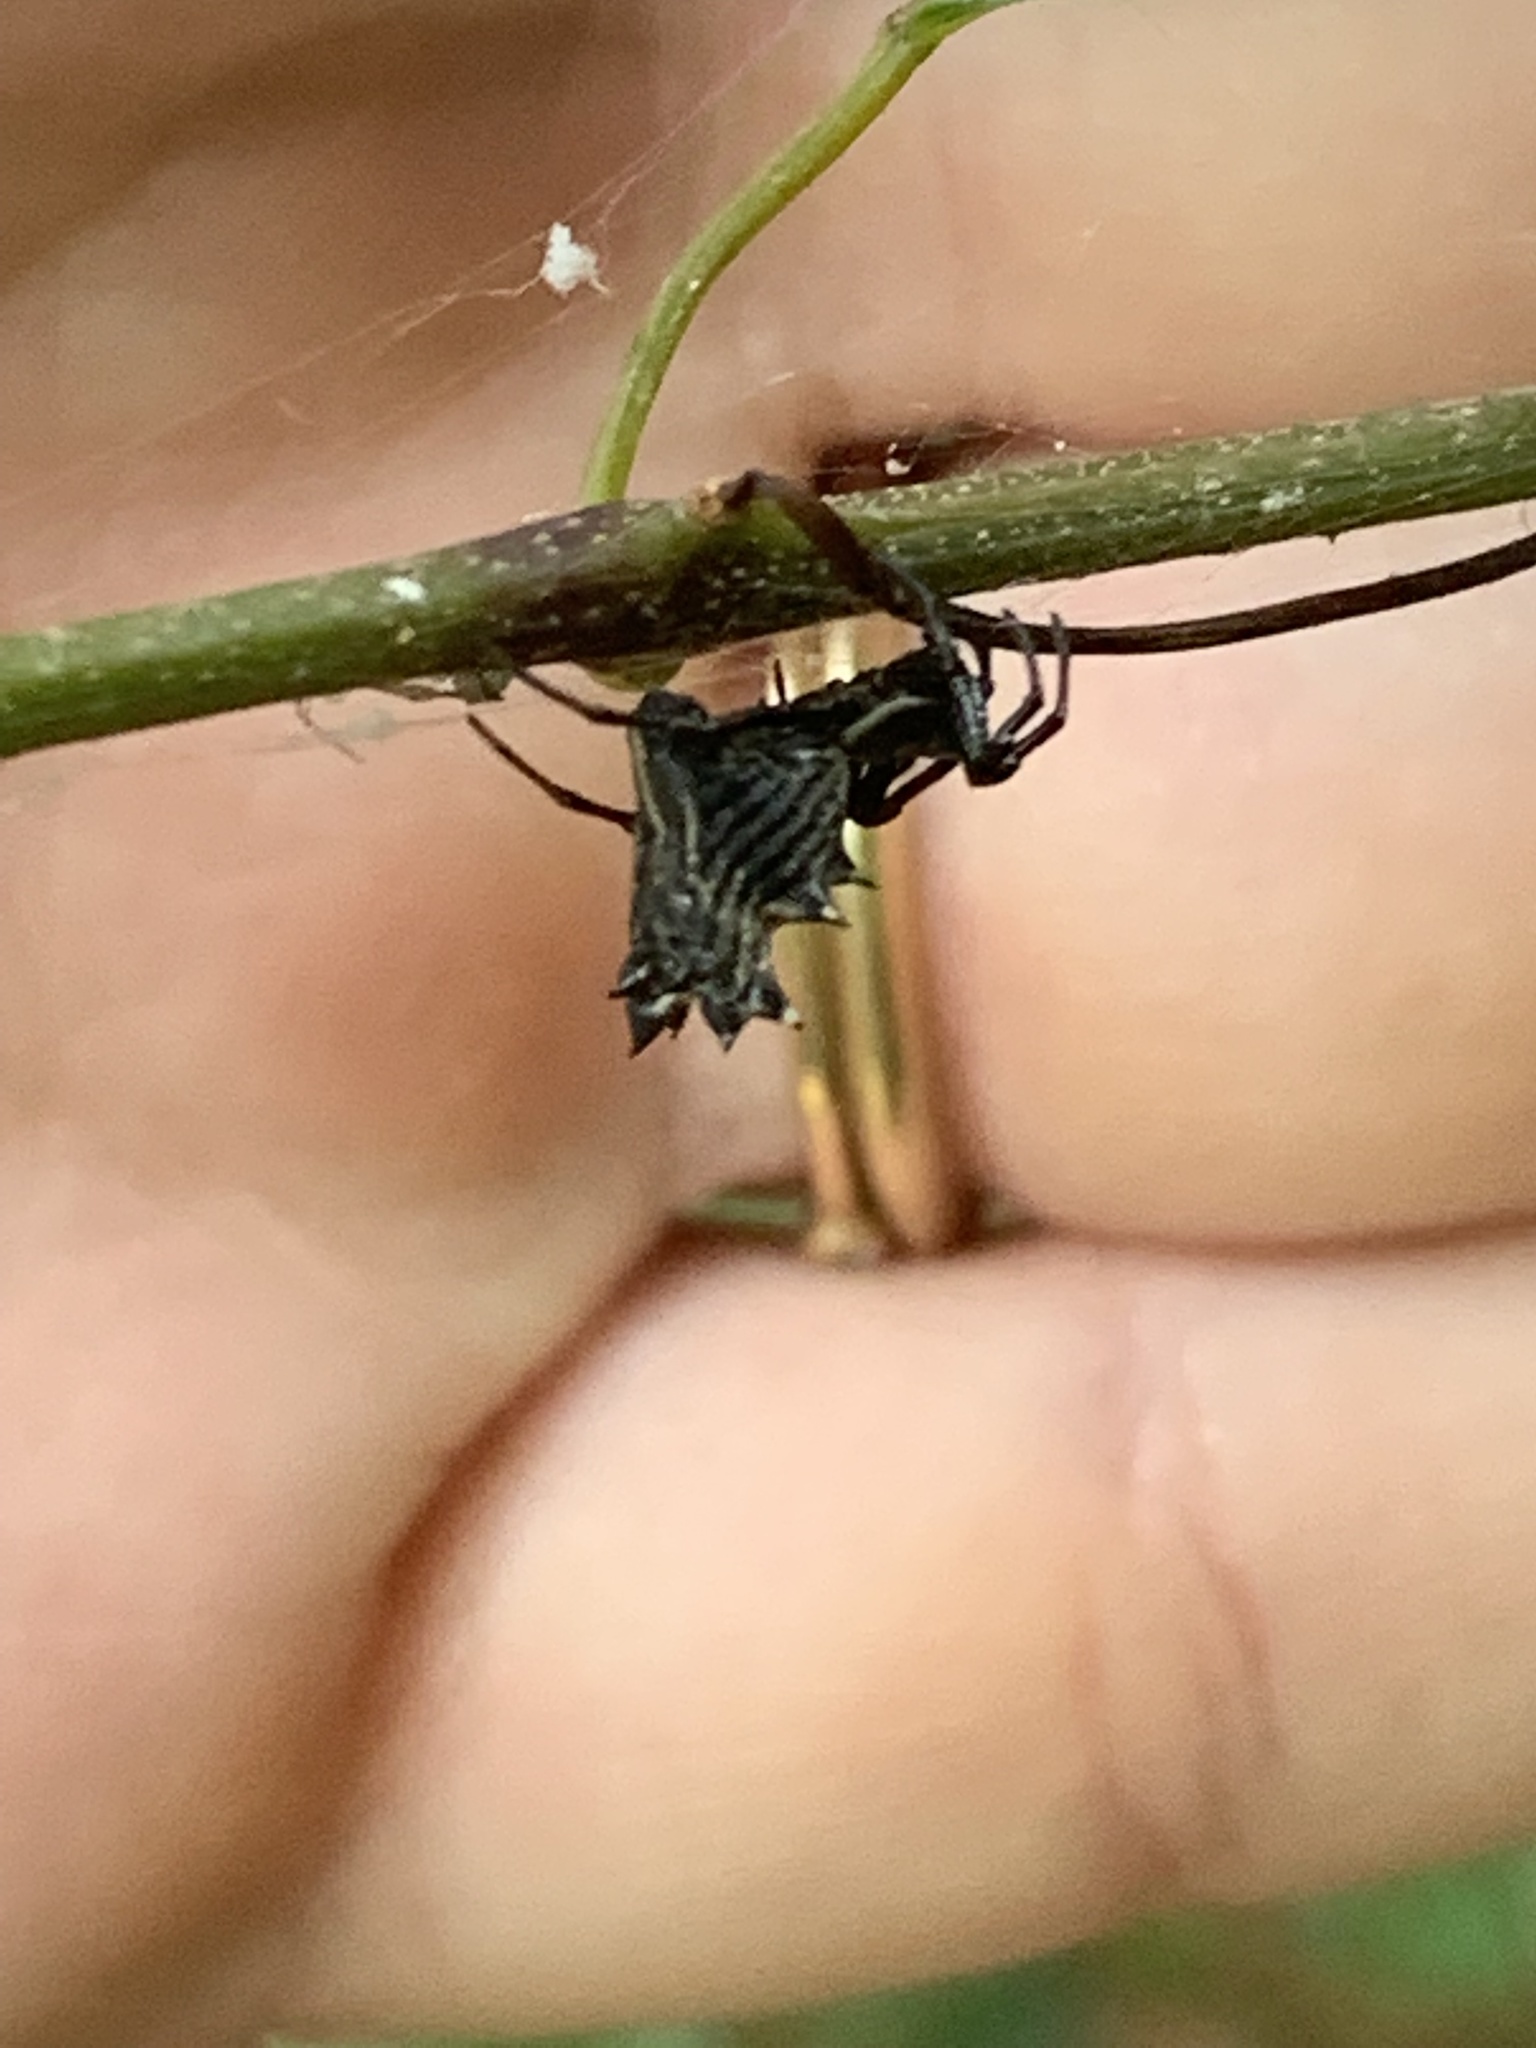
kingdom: Animalia
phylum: Arthropoda
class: Arachnida
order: Araneae
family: Araneidae
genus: Micrathena
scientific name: Micrathena gracilis
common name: Orb weavers
